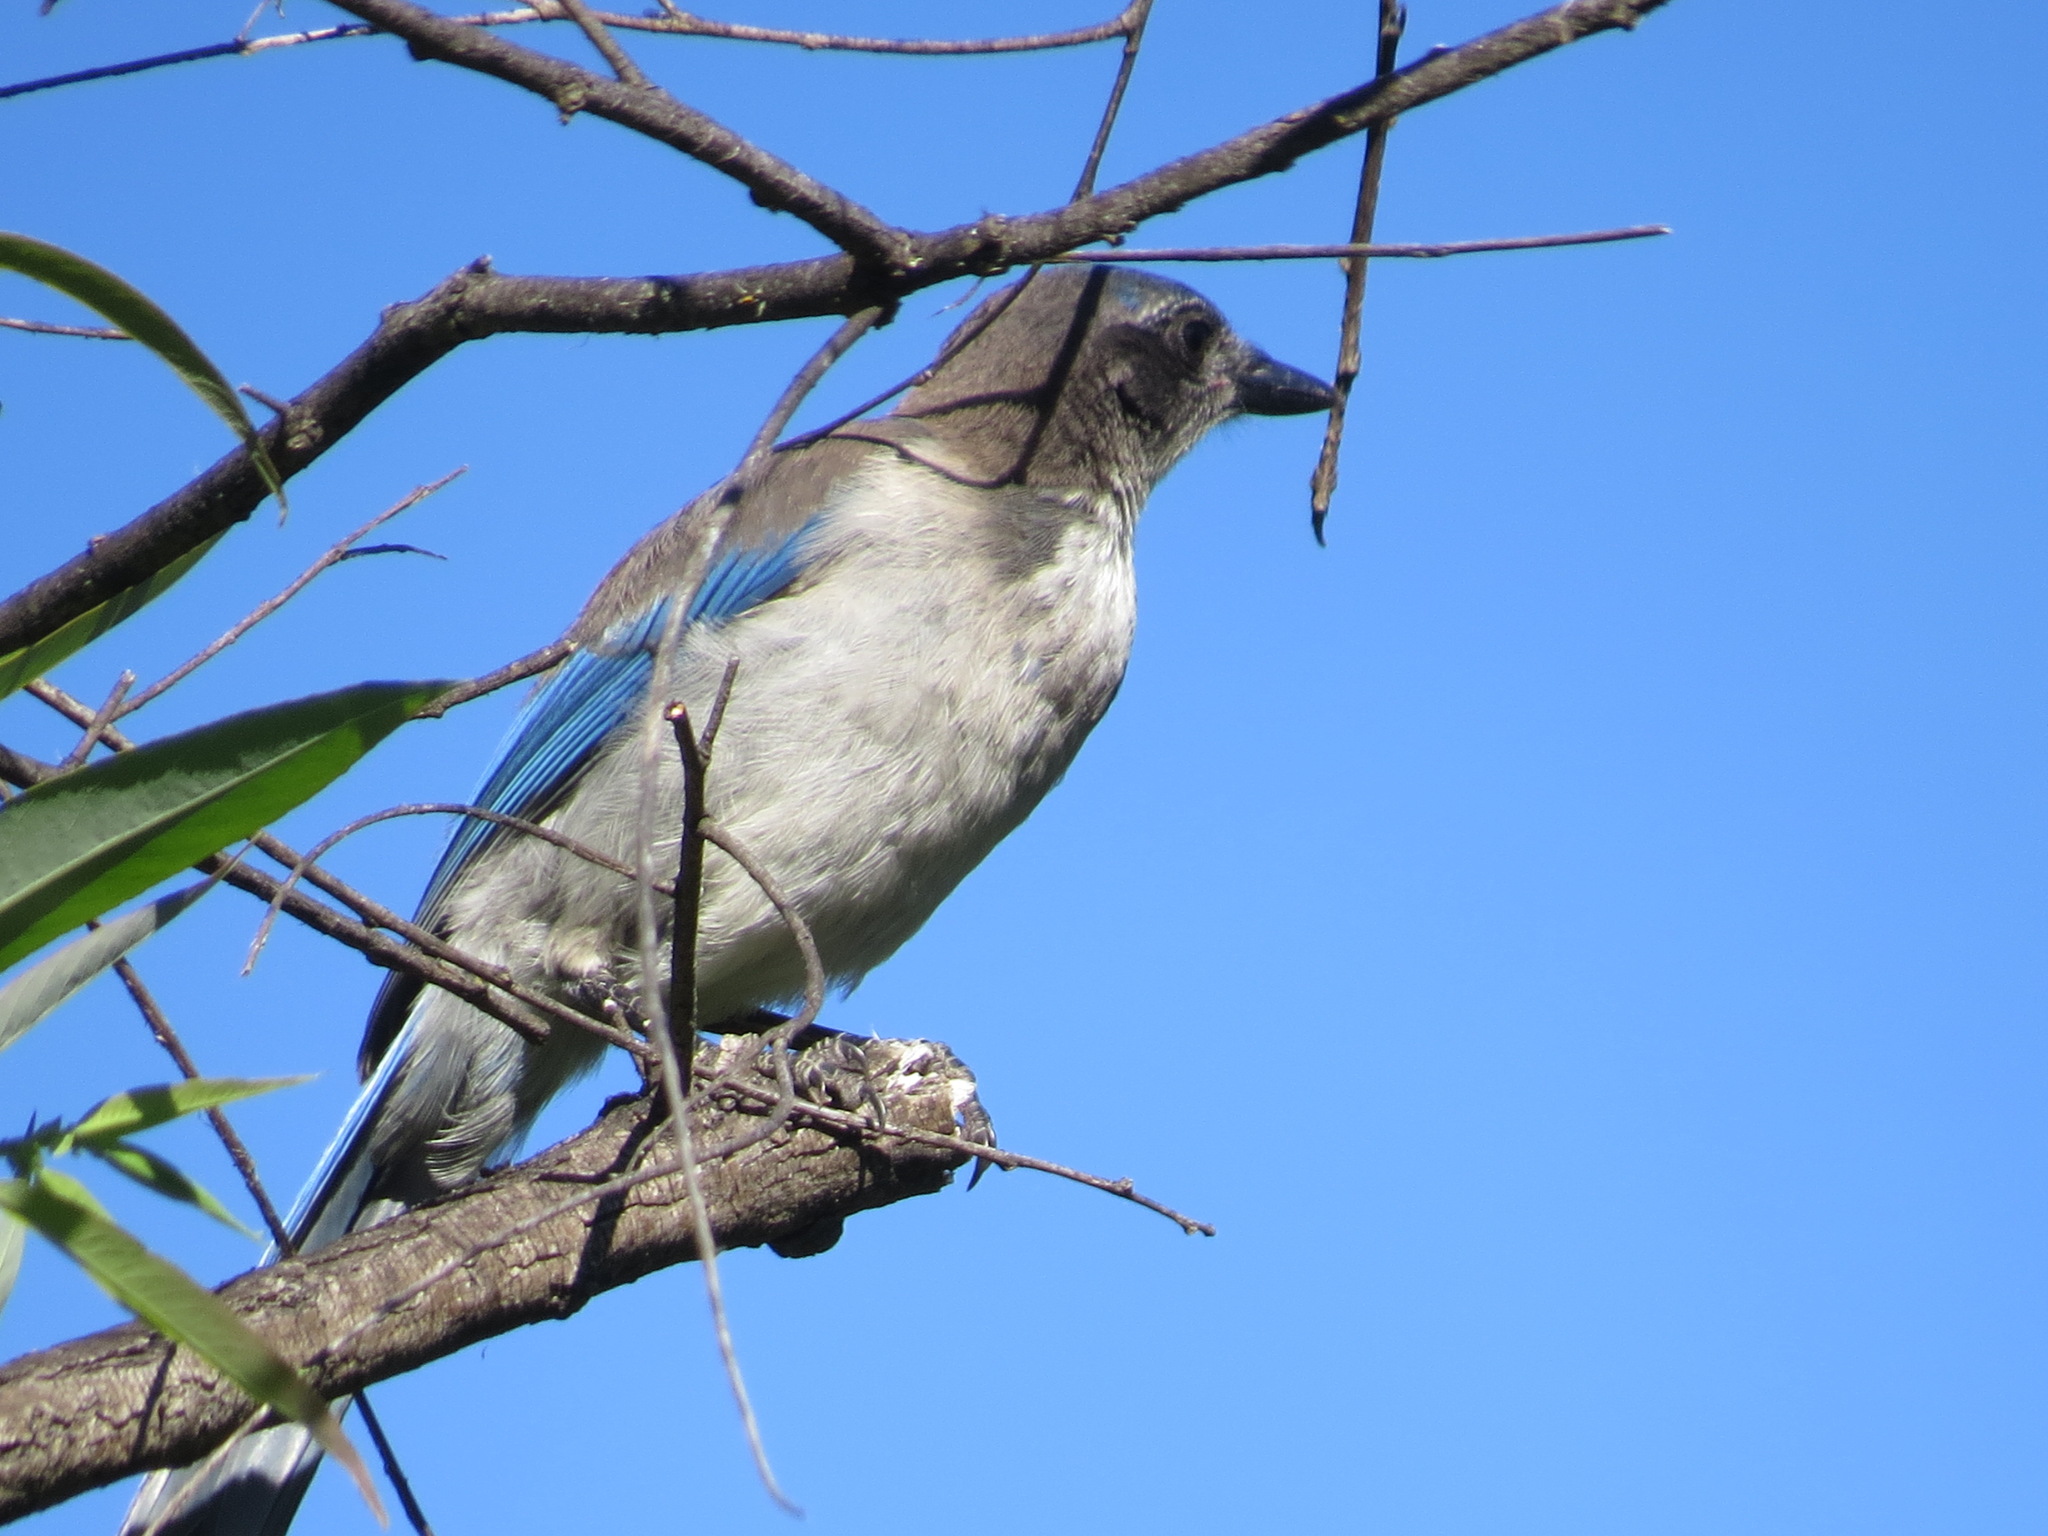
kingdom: Animalia
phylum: Chordata
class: Aves
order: Passeriformes
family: Corvidae
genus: Aphelocoma
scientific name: Aphelocoma californica
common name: California scrub-jay
